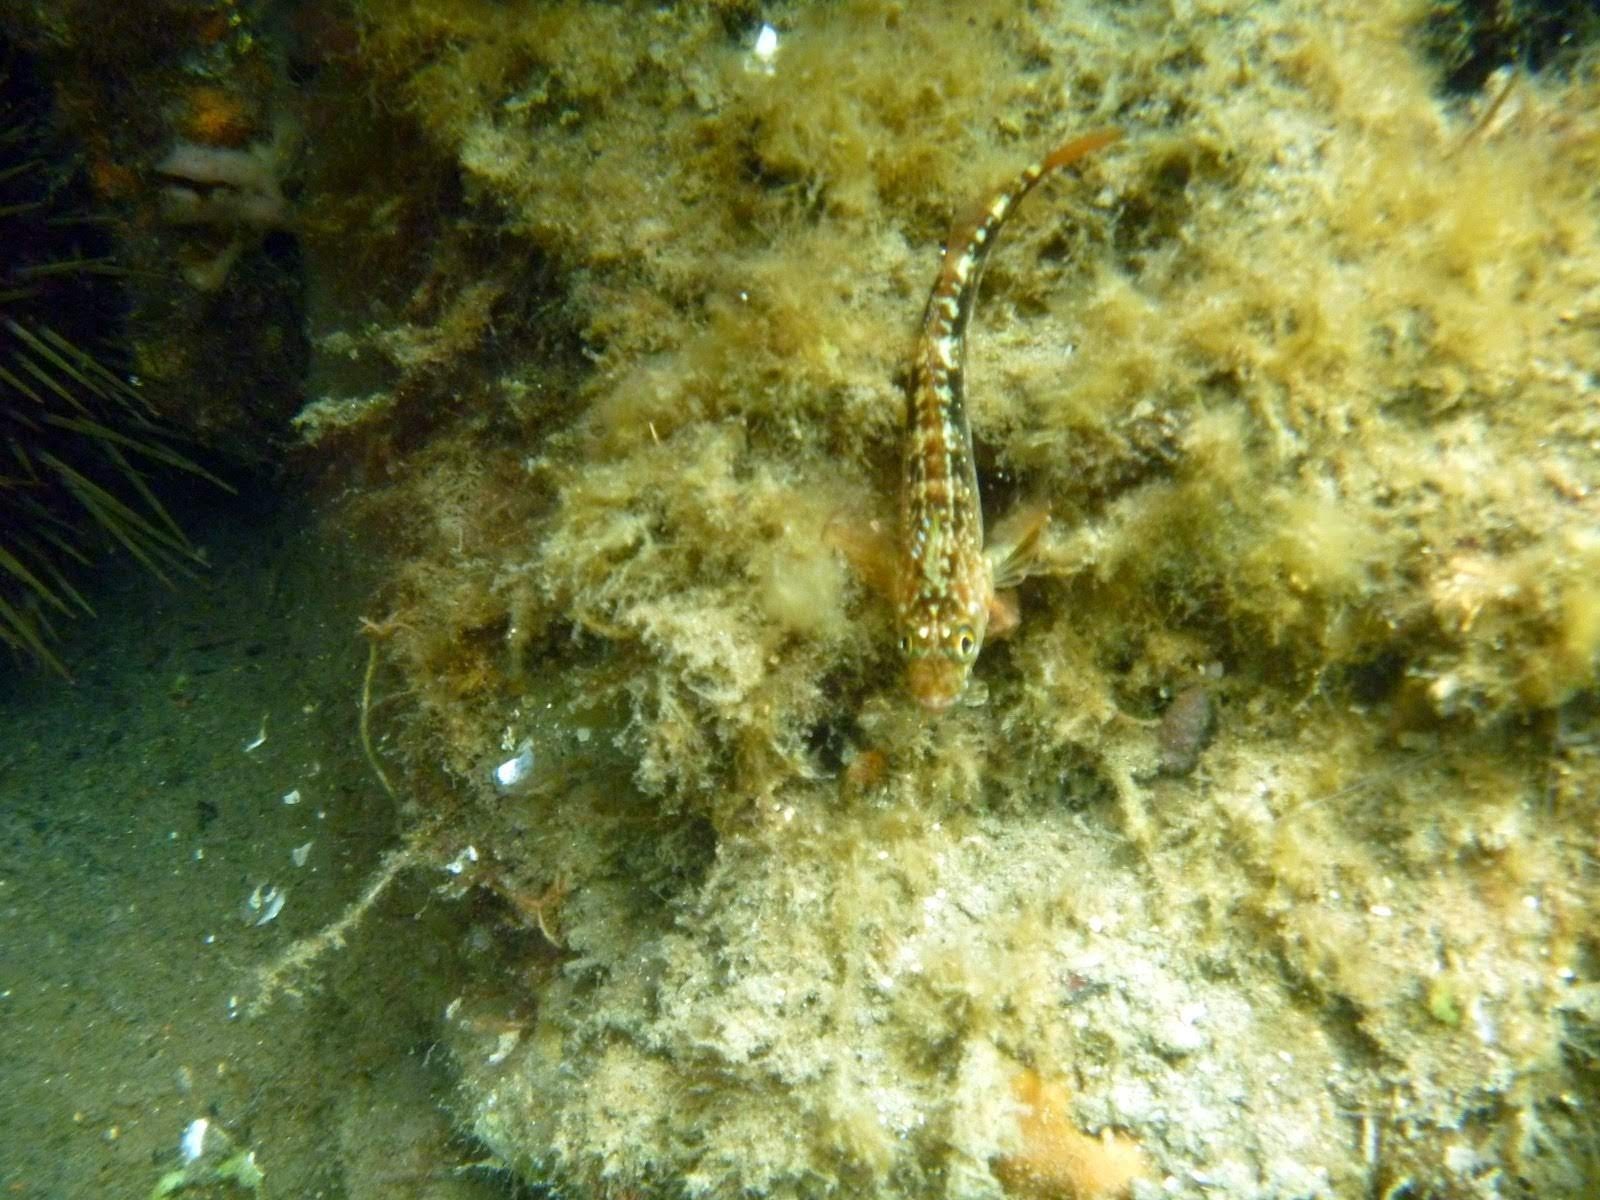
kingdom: Animalia
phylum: Chordata
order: Perciformes
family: Tripterygiidae
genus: Forsterygion
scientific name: Forsterygion varium
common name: Variable triplefin
